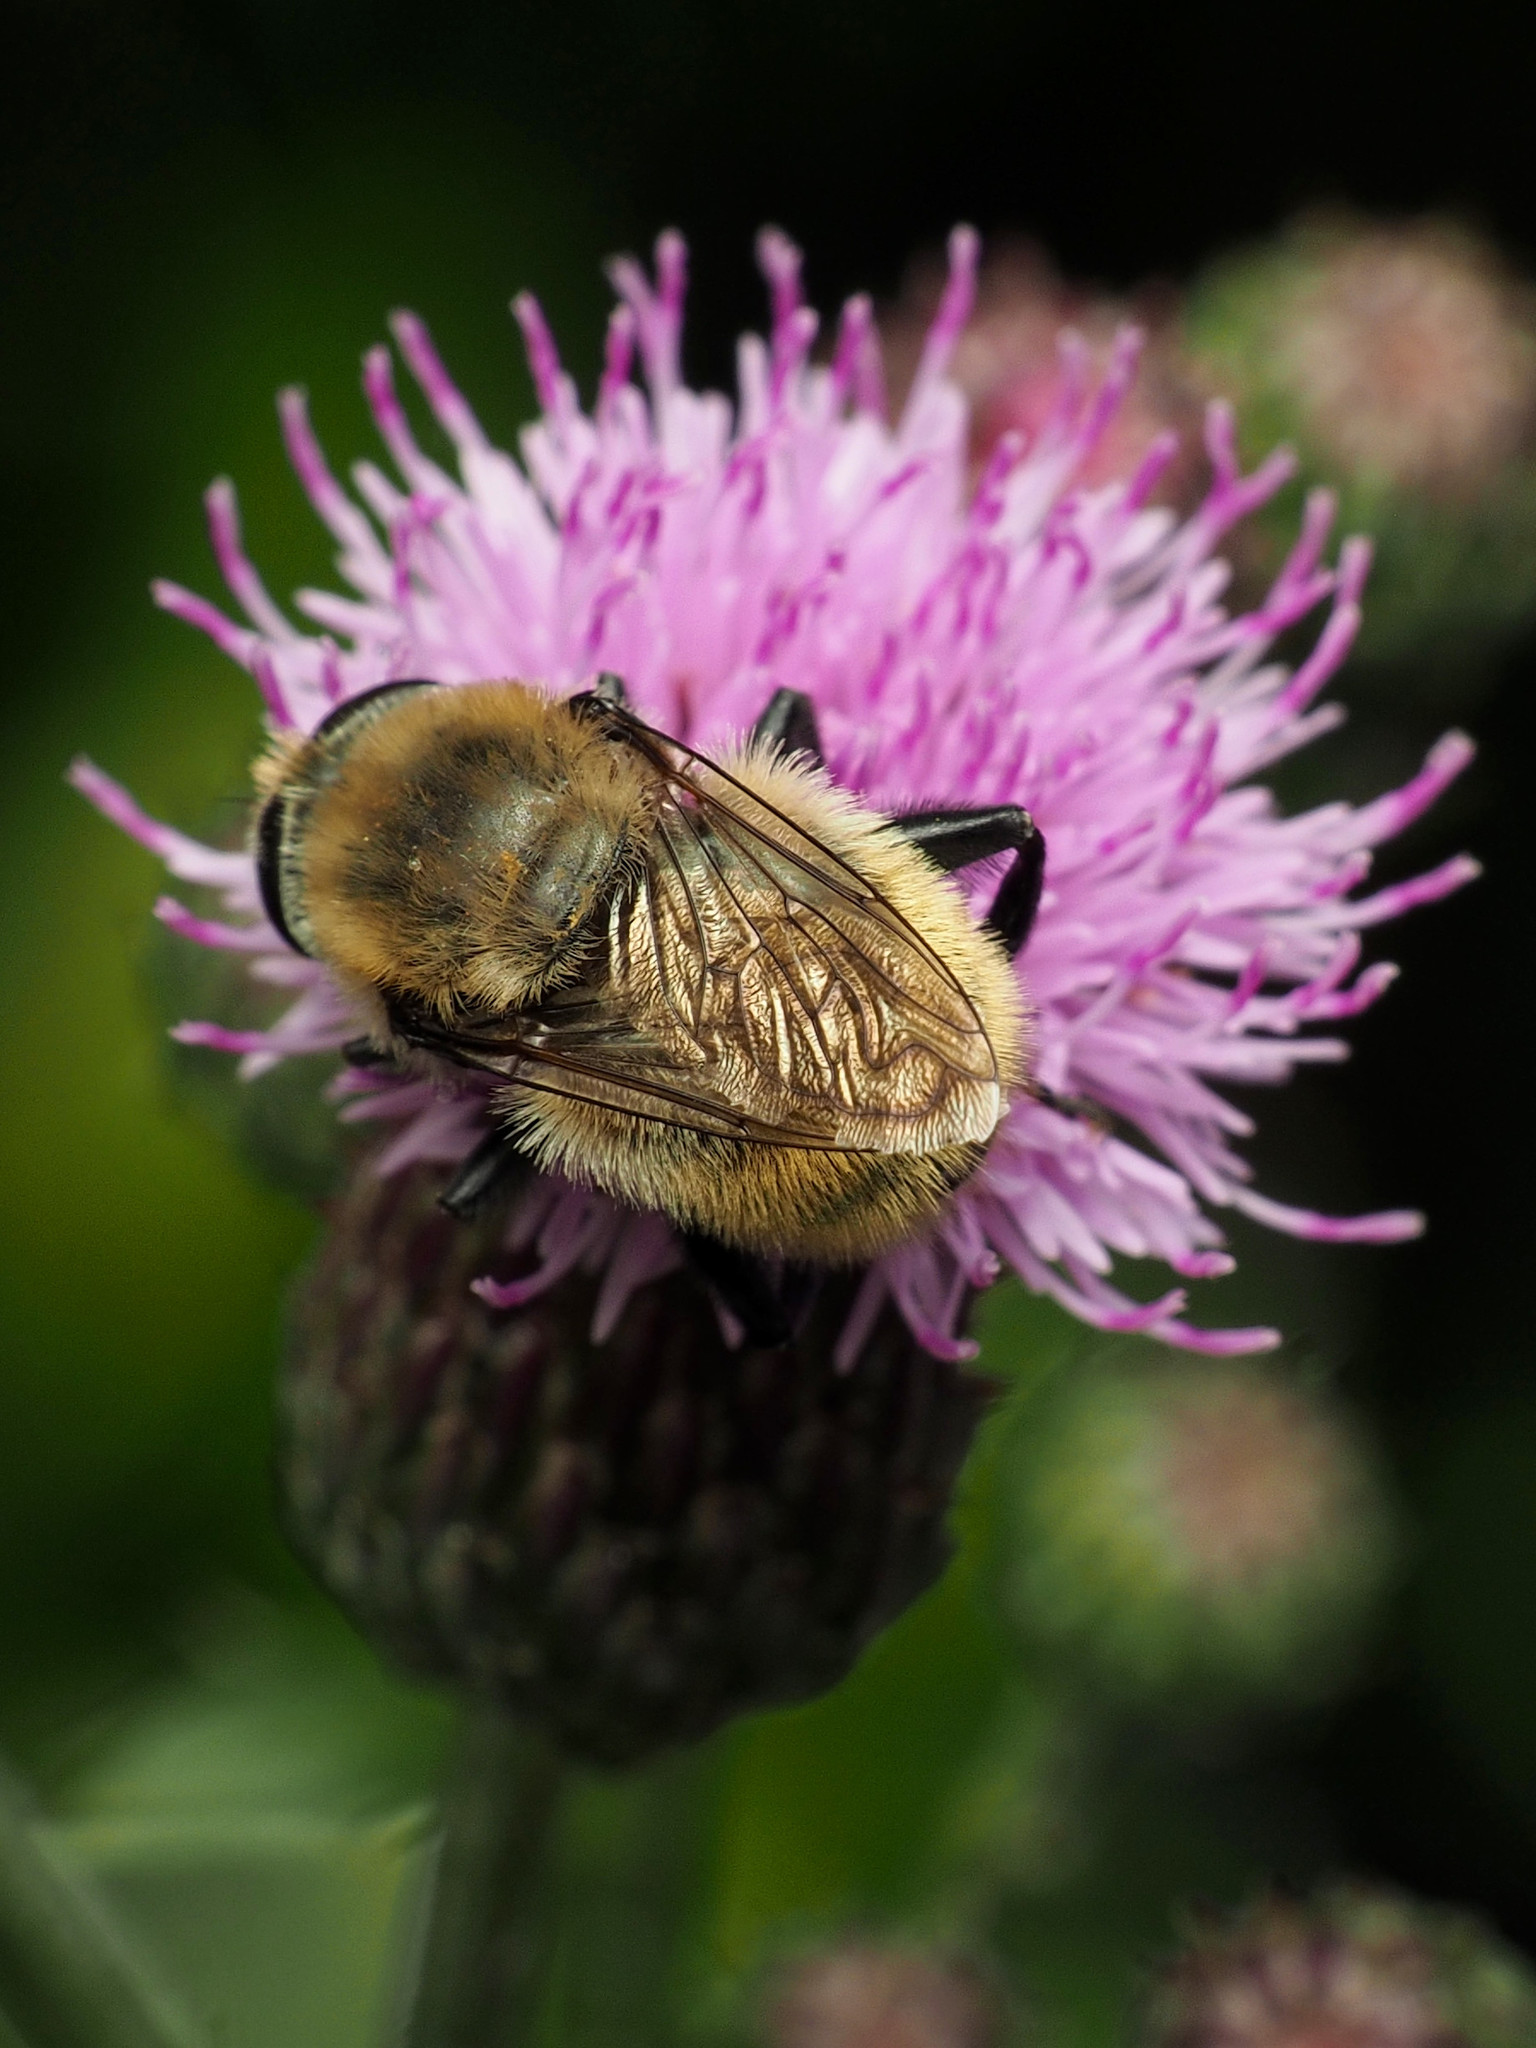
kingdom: Animalia
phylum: Arthropoda
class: Insecta
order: Diptera
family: Syrphidae
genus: Merodon
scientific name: Merodon equestris
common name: Greater bulb-fly
